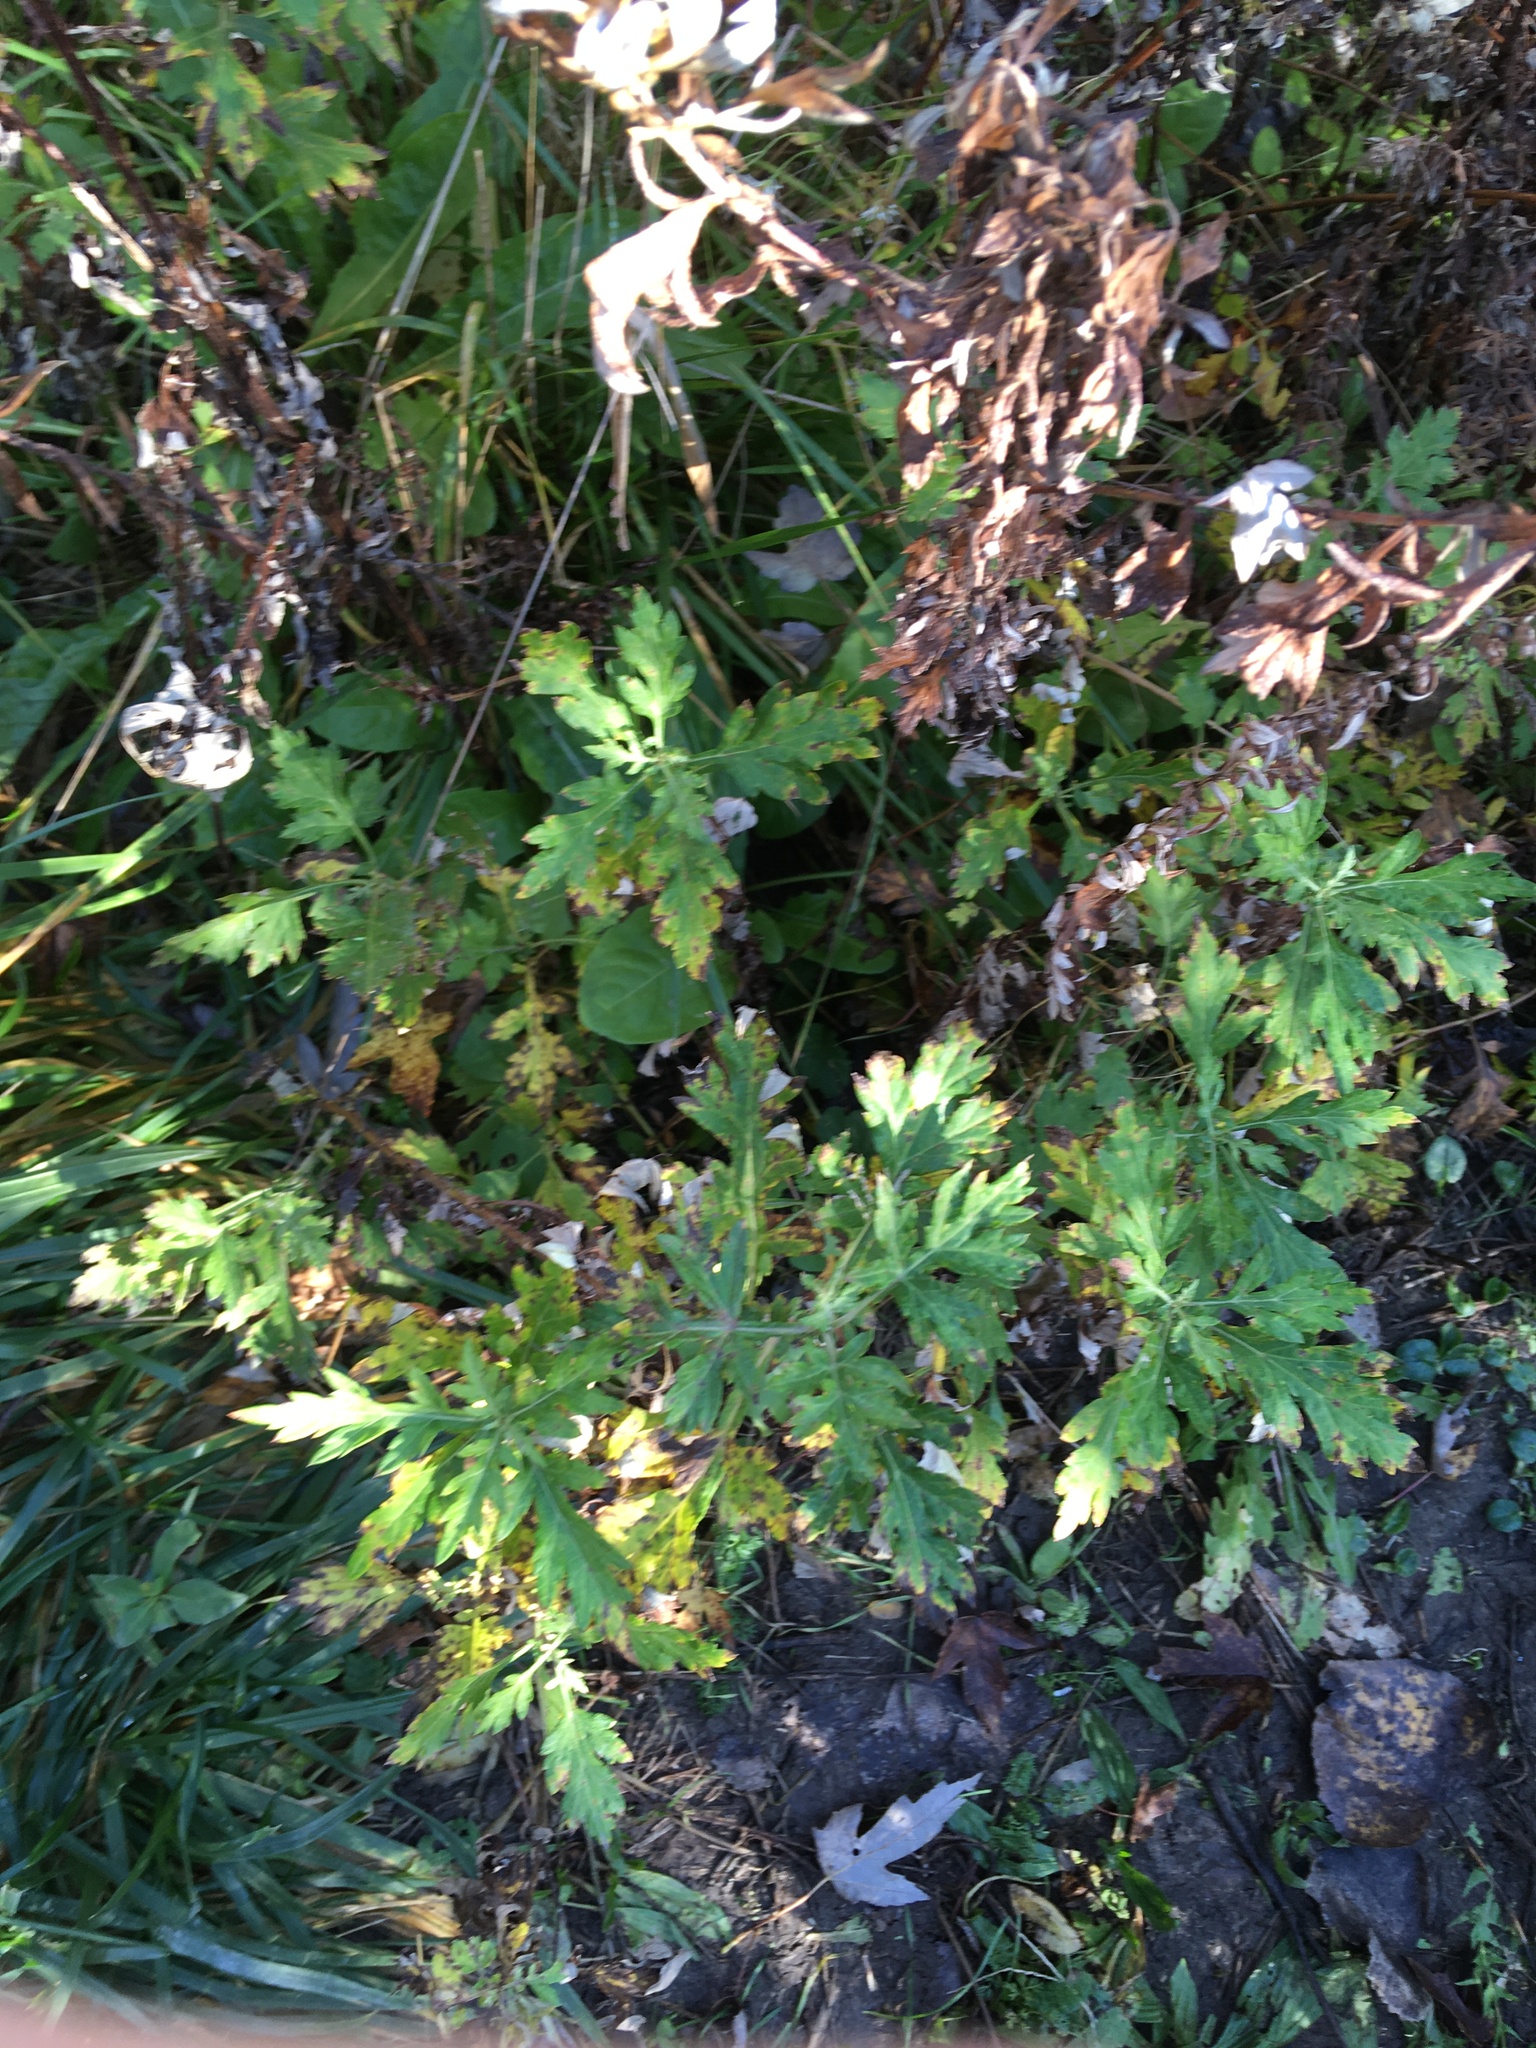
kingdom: Plantae
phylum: Tracheophyta
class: Magnoliopsida
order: Asterales
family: Asteraceae
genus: Artemisia
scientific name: Artemisia vulgaris
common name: Mugwort
